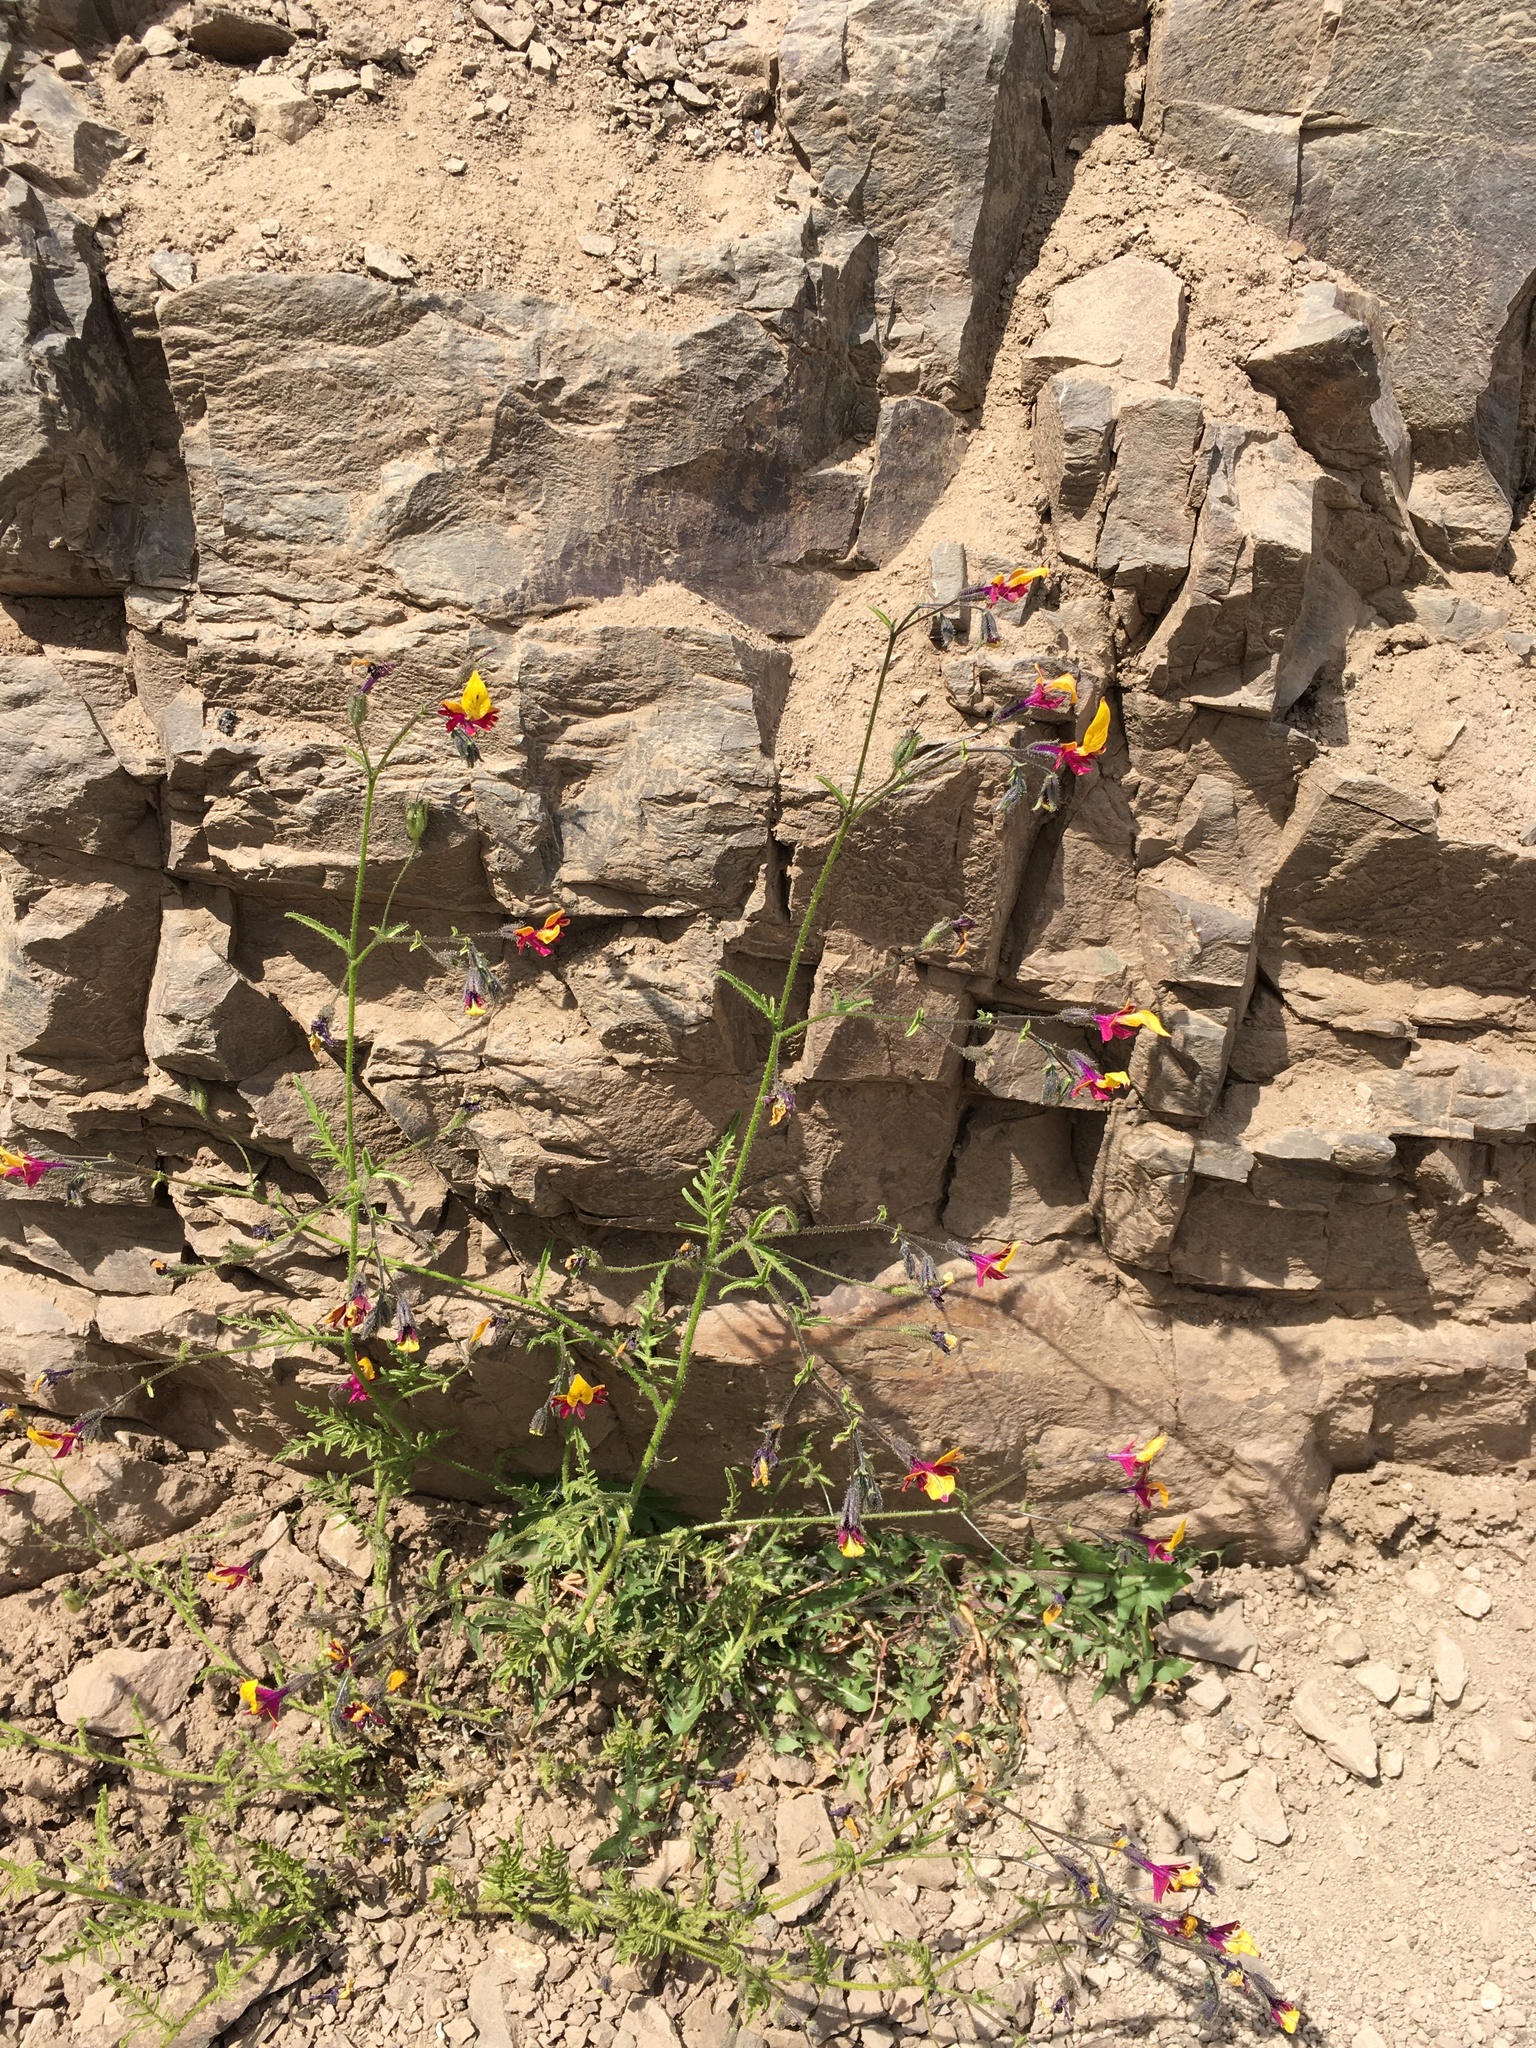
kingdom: Plantae
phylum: Tracheophyta
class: Magnoliopsida
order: Solanales
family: Solanaceae
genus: Schizanthus
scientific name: Schizanthus coccineus
